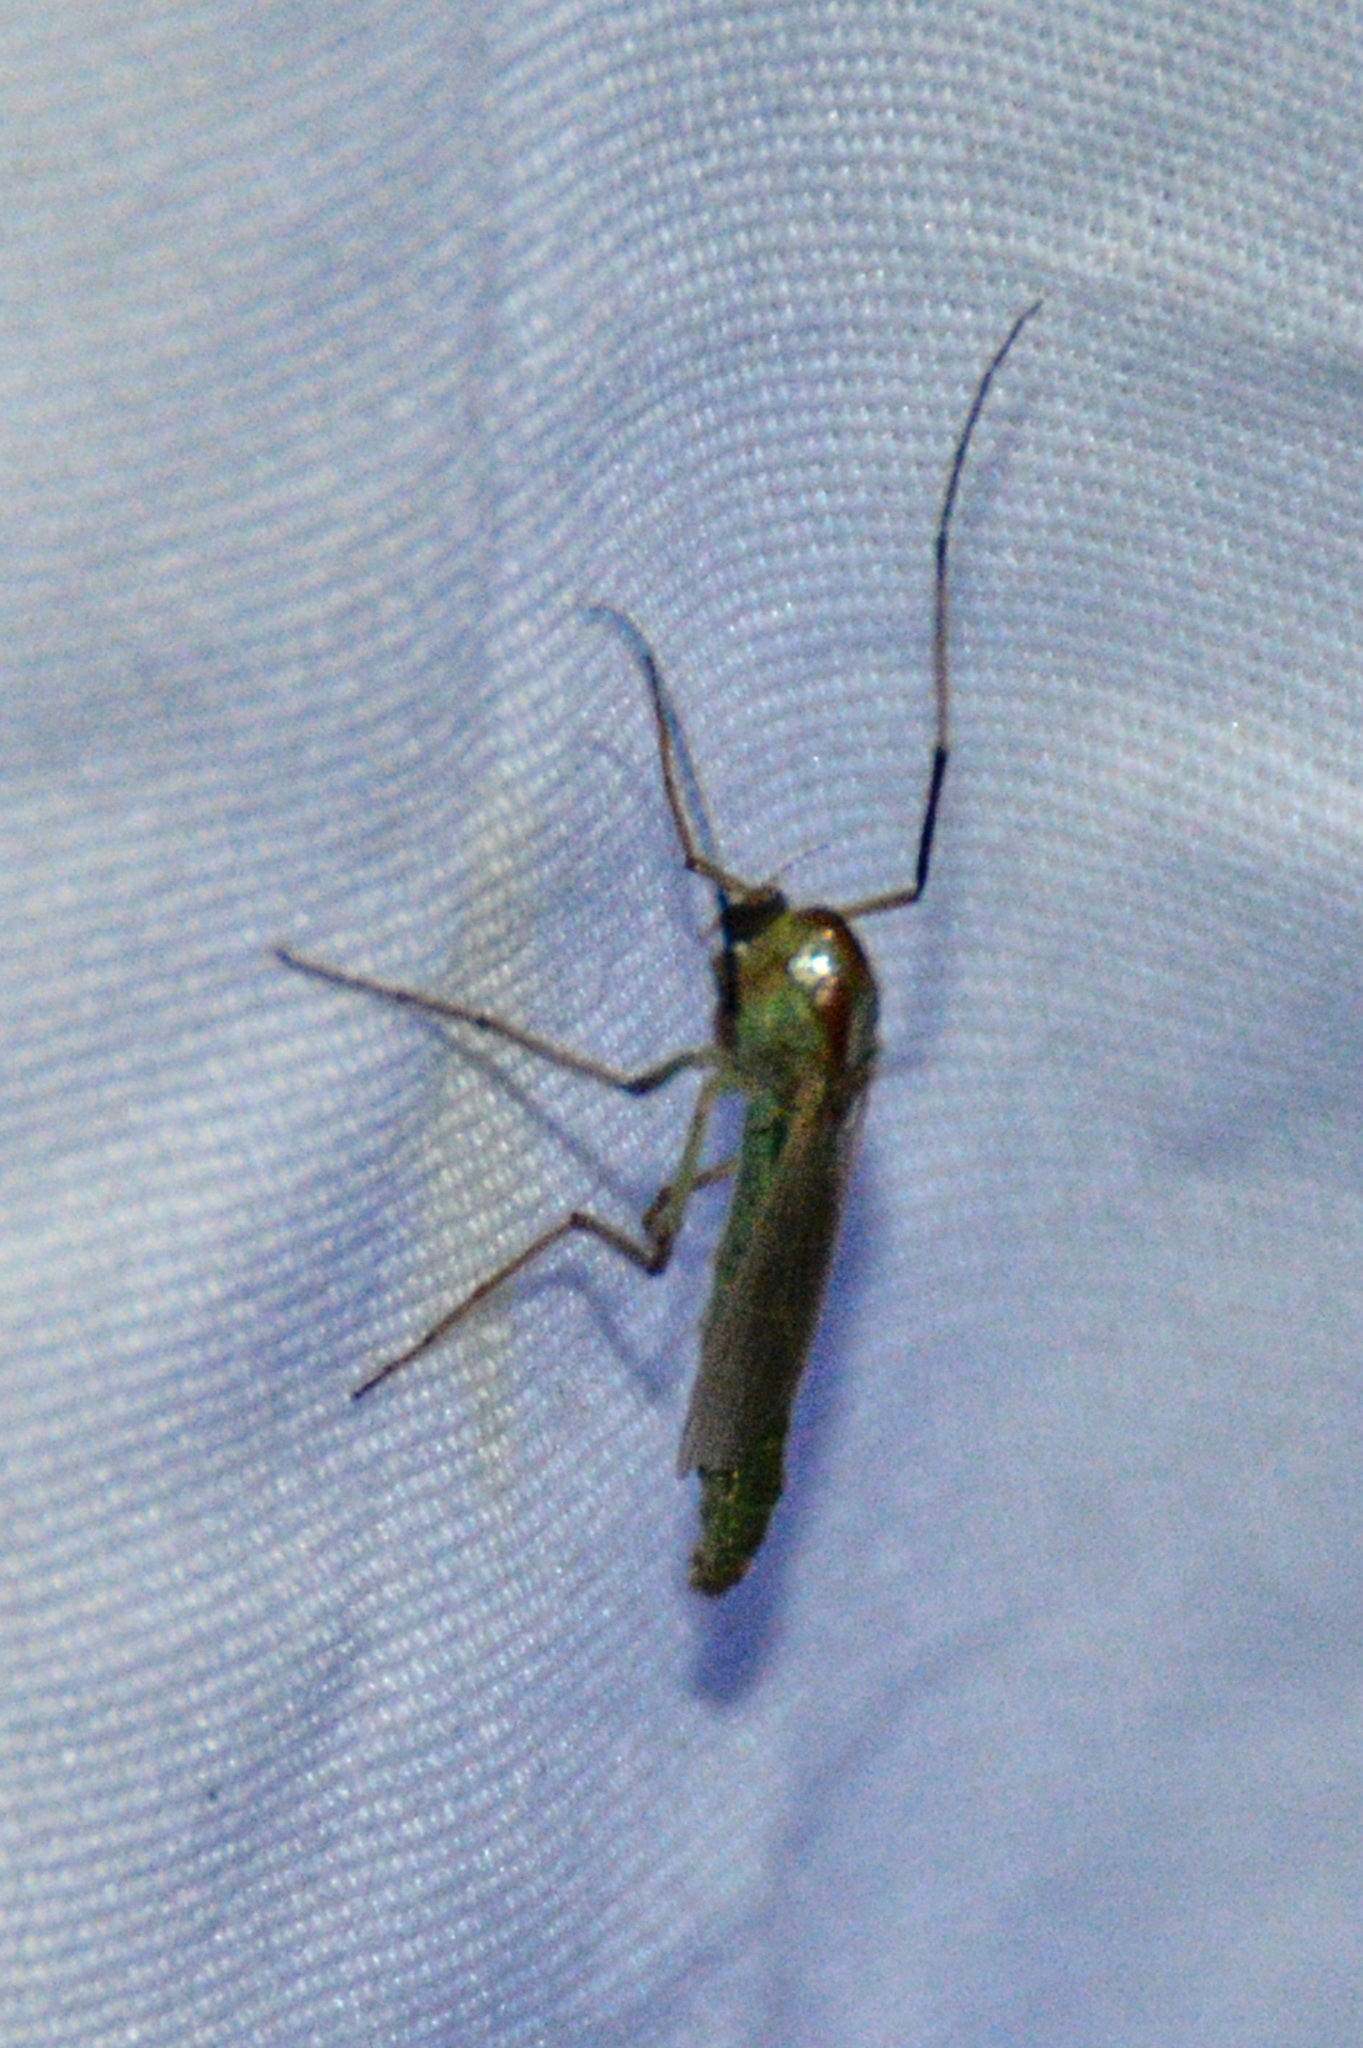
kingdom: Animalia
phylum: Arthropoda
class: Insecta
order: Diptera
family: Chironomidae
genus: Axarus
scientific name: Axarus
